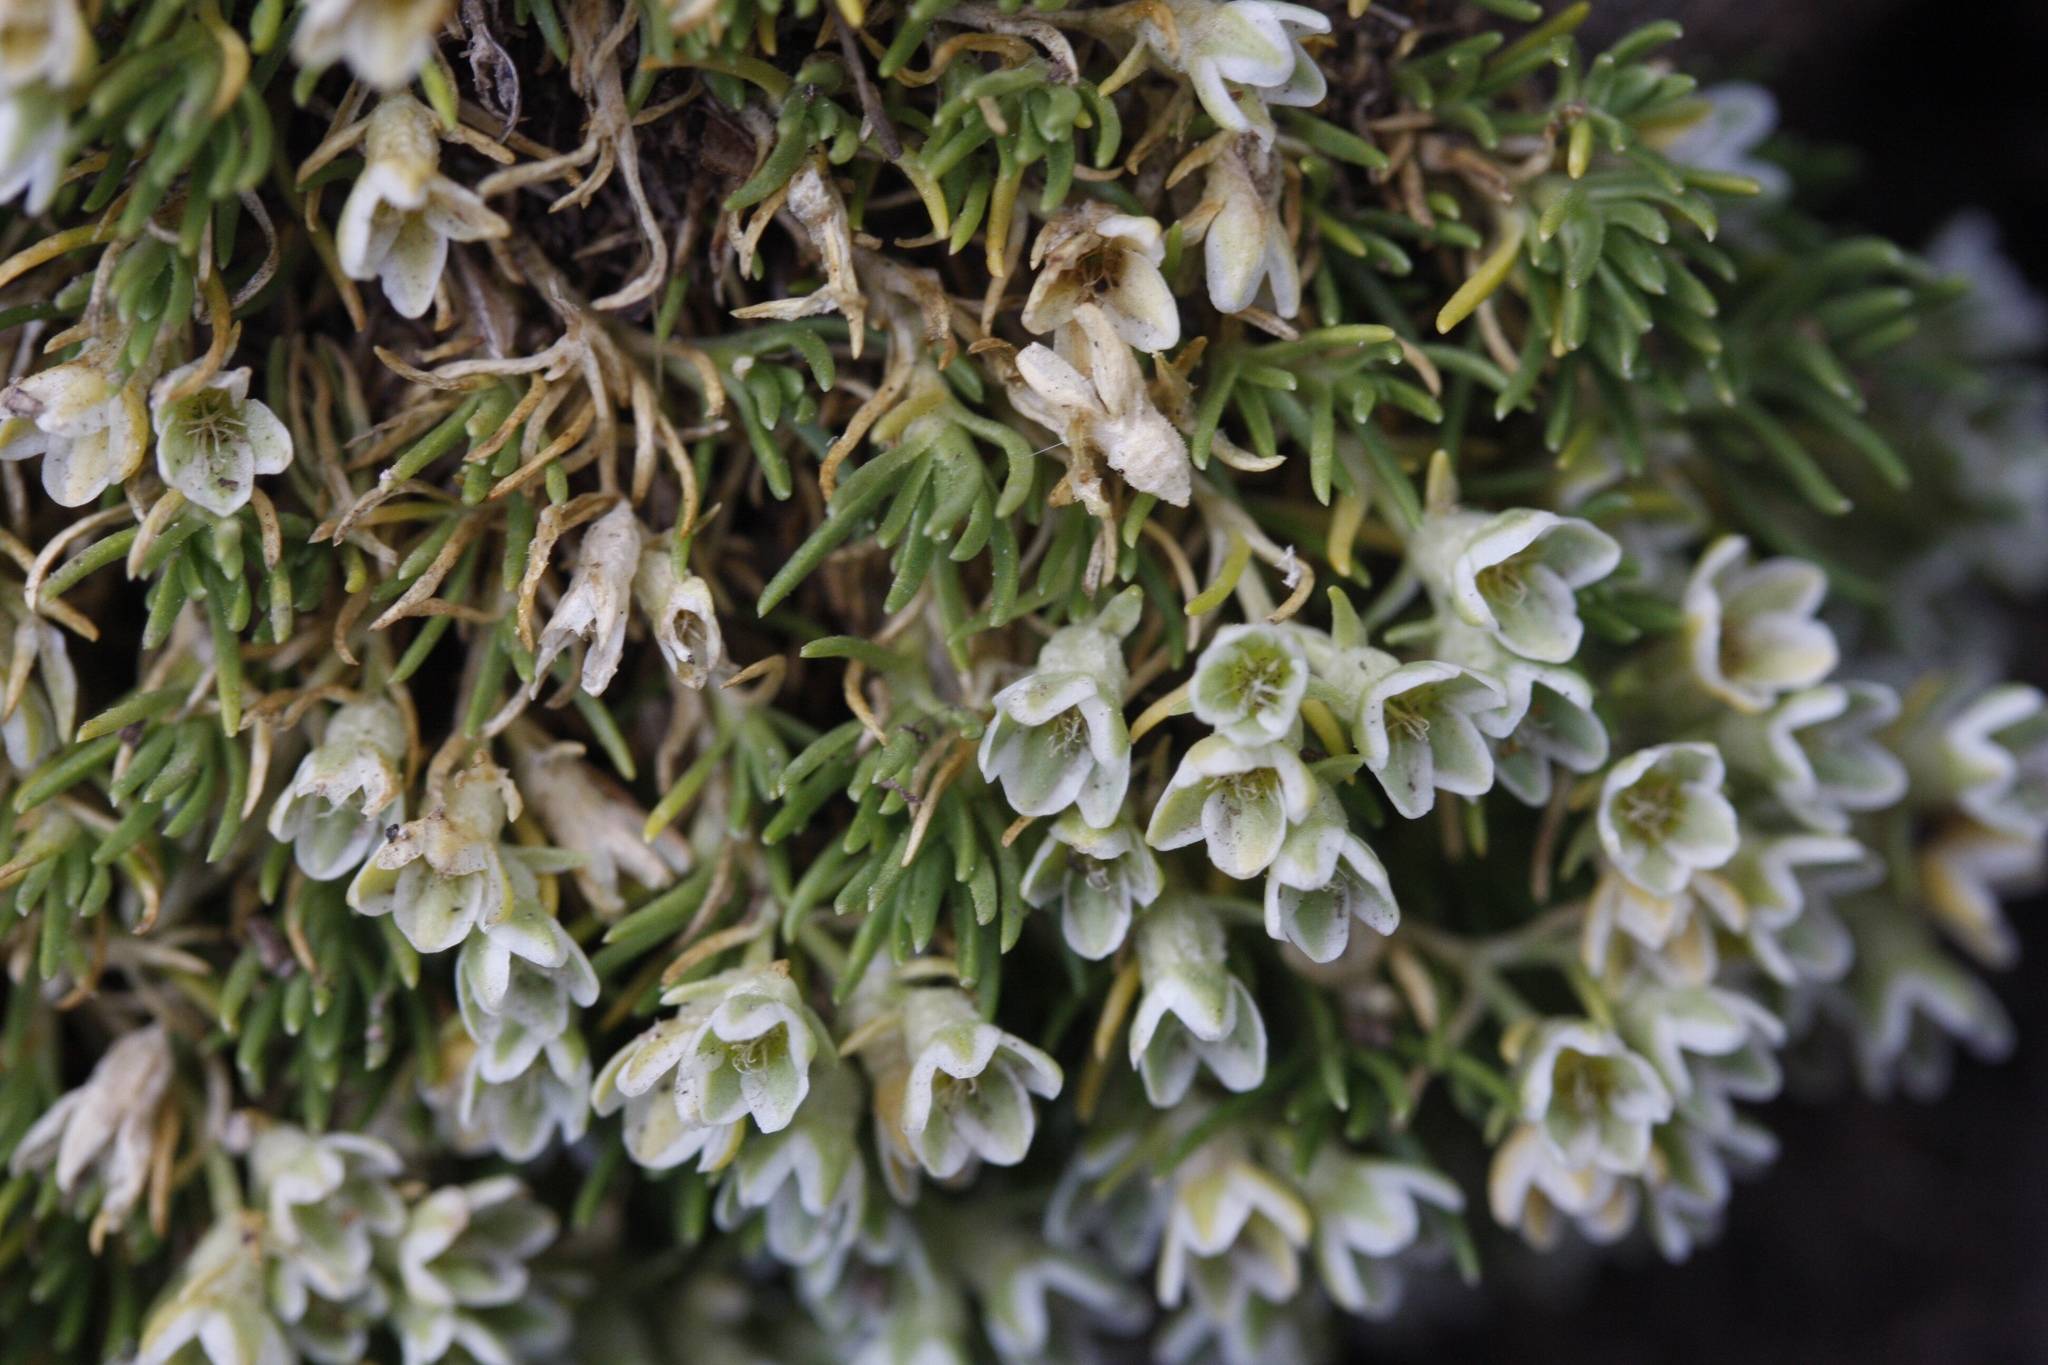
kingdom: Plantae
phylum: Tracheophyta
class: Magnoliopsida
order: Caryophyllales
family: Caryophyllaceae
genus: Scleranthus
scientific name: Scleranthus perennis
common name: Perennial knawel
